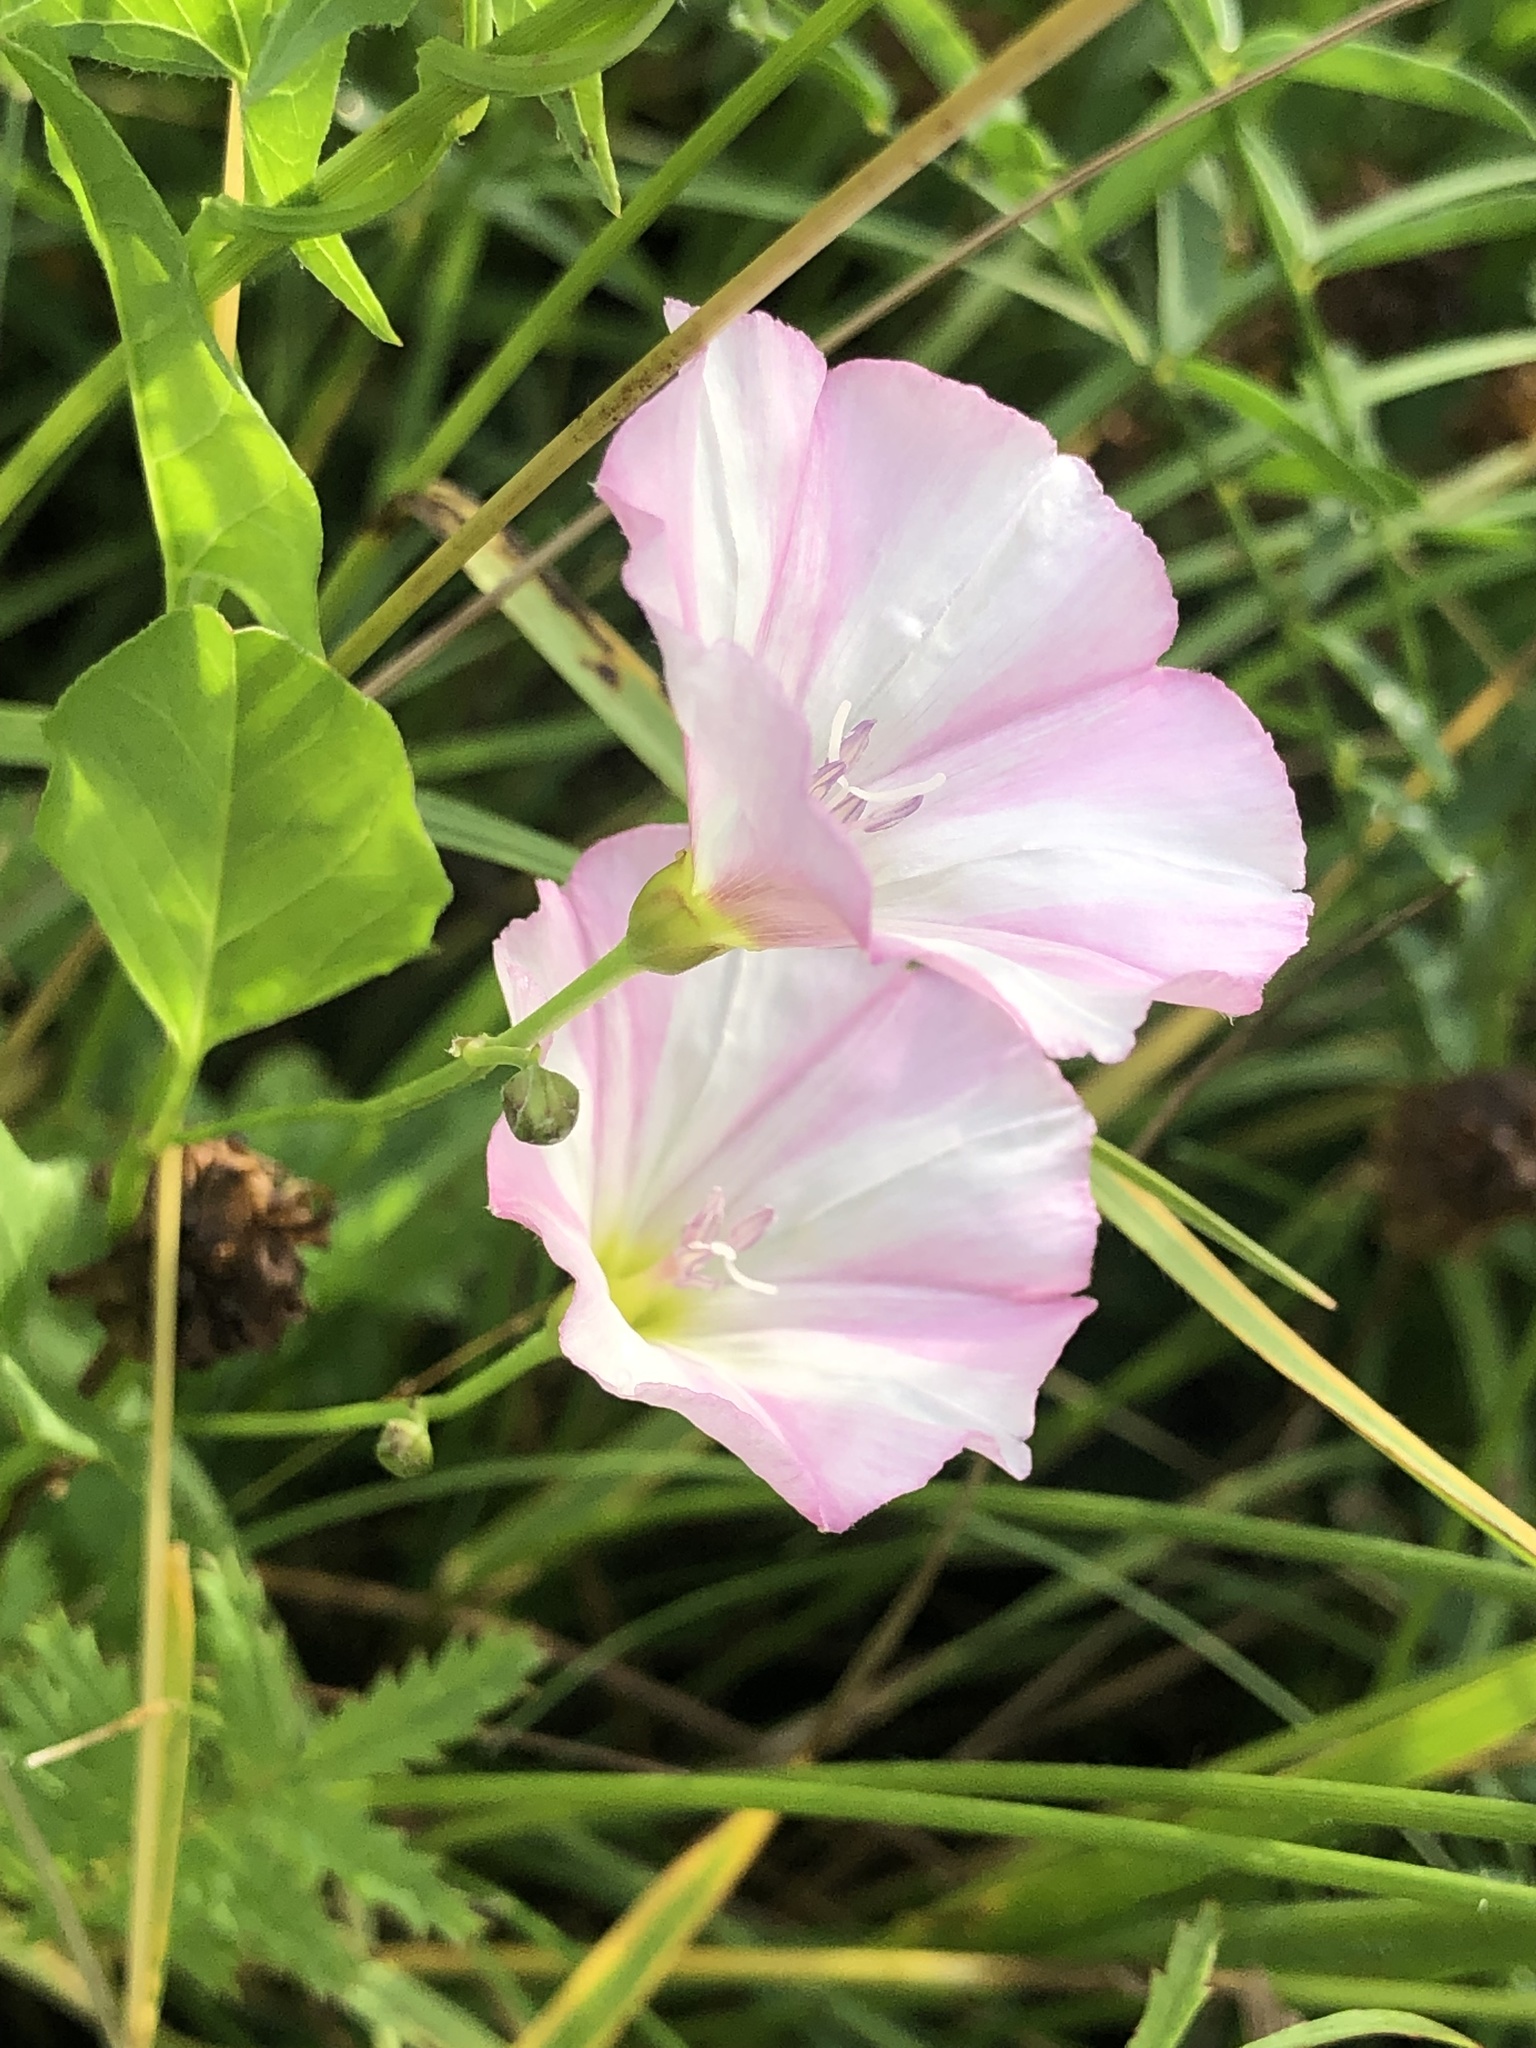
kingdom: Plantae
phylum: Tracheophyta
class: Magnoliopsida
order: Solanales
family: Convolvulaceae
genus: Convolvulus
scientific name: Convolvulus arvensis
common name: Field bindweed
